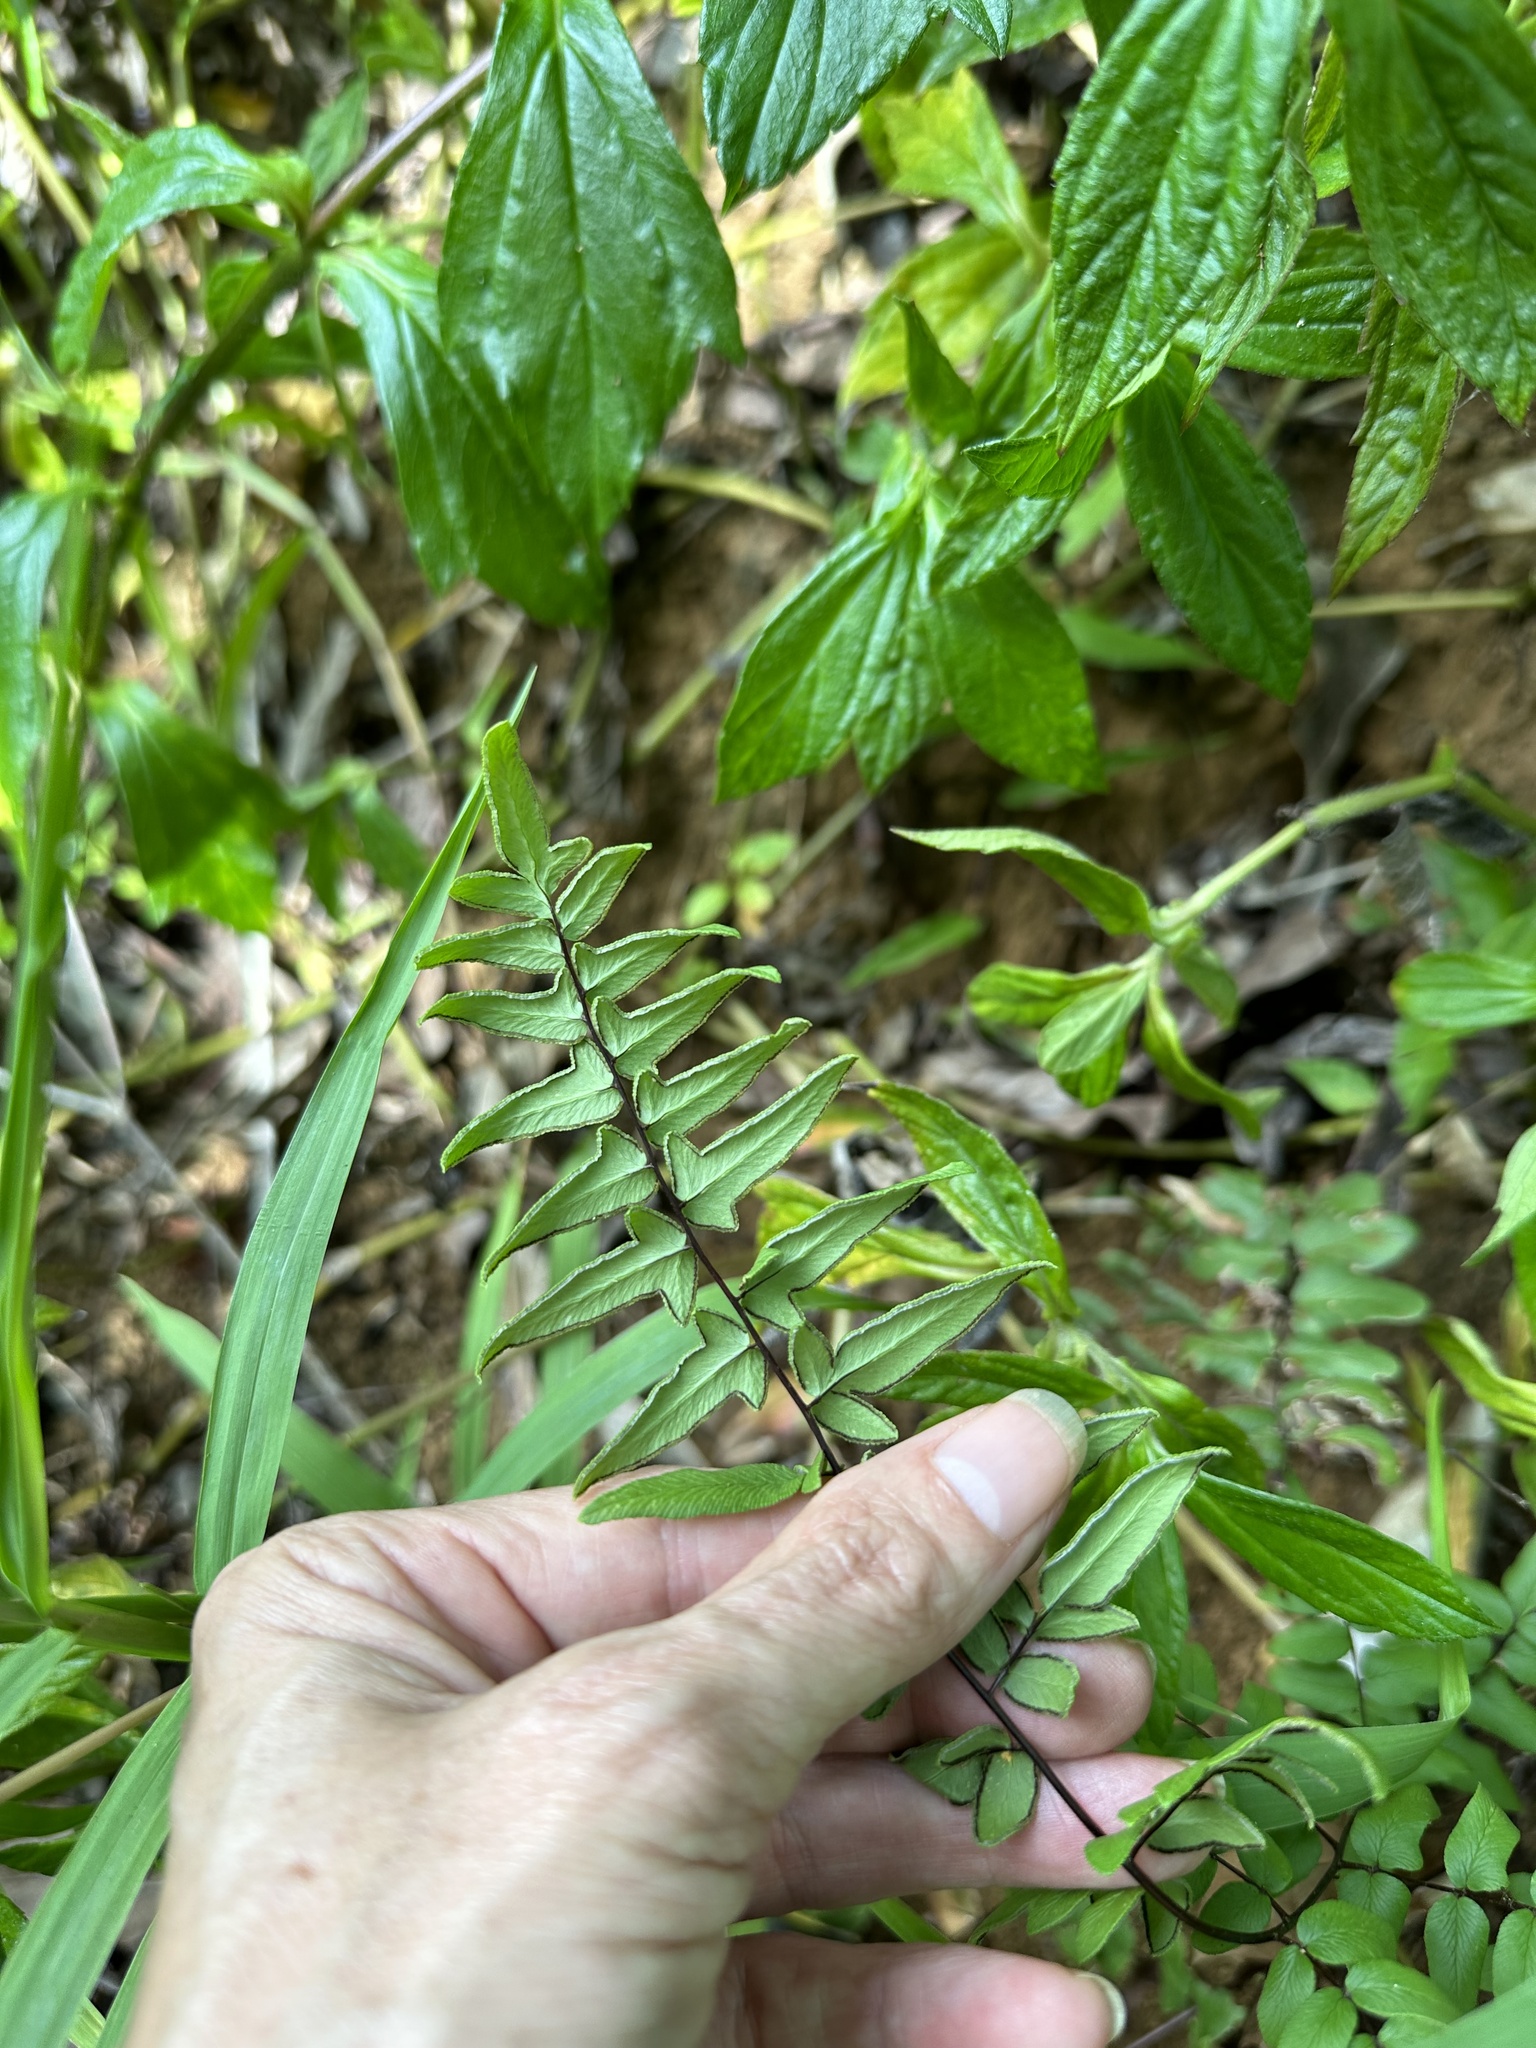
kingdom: Plantae
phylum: Tracheophyta
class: Polypodiopsida
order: Polypodiales
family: Pteridaceae
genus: Cheilanthes
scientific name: Cheilanthes viridis
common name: Green cliffbrake
